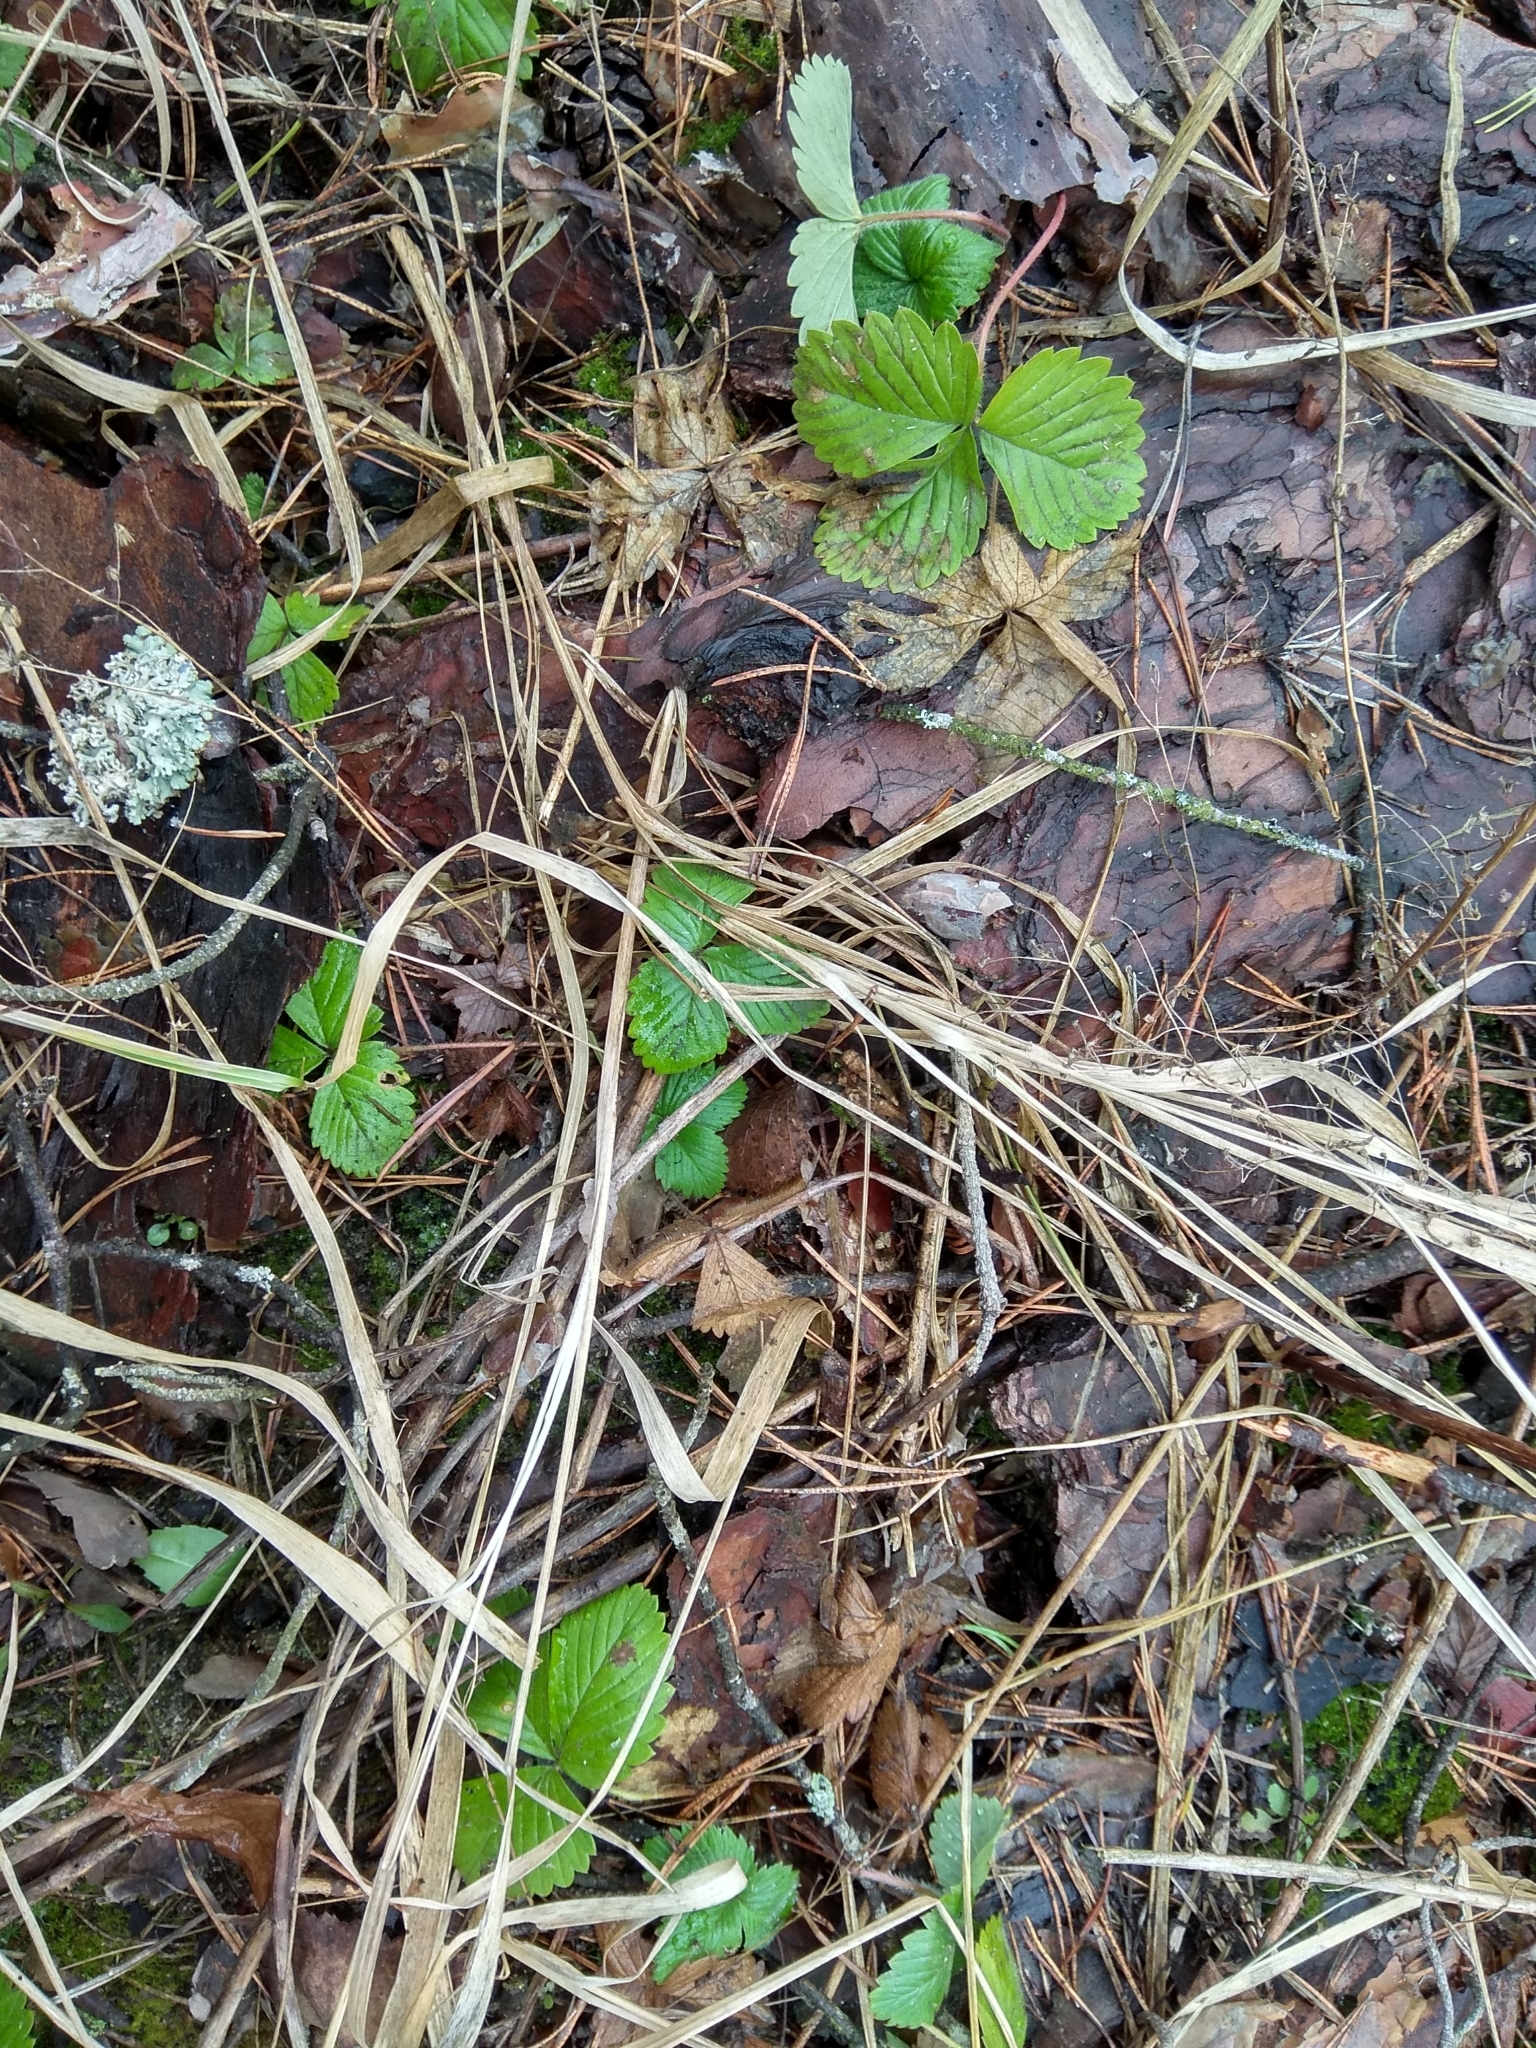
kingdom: Plantae
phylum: Tracheophyta
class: Magnoliopsida
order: Rosales
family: Rosaceae
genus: Fragaria
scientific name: Fragaria vesca
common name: Wild strawberry
